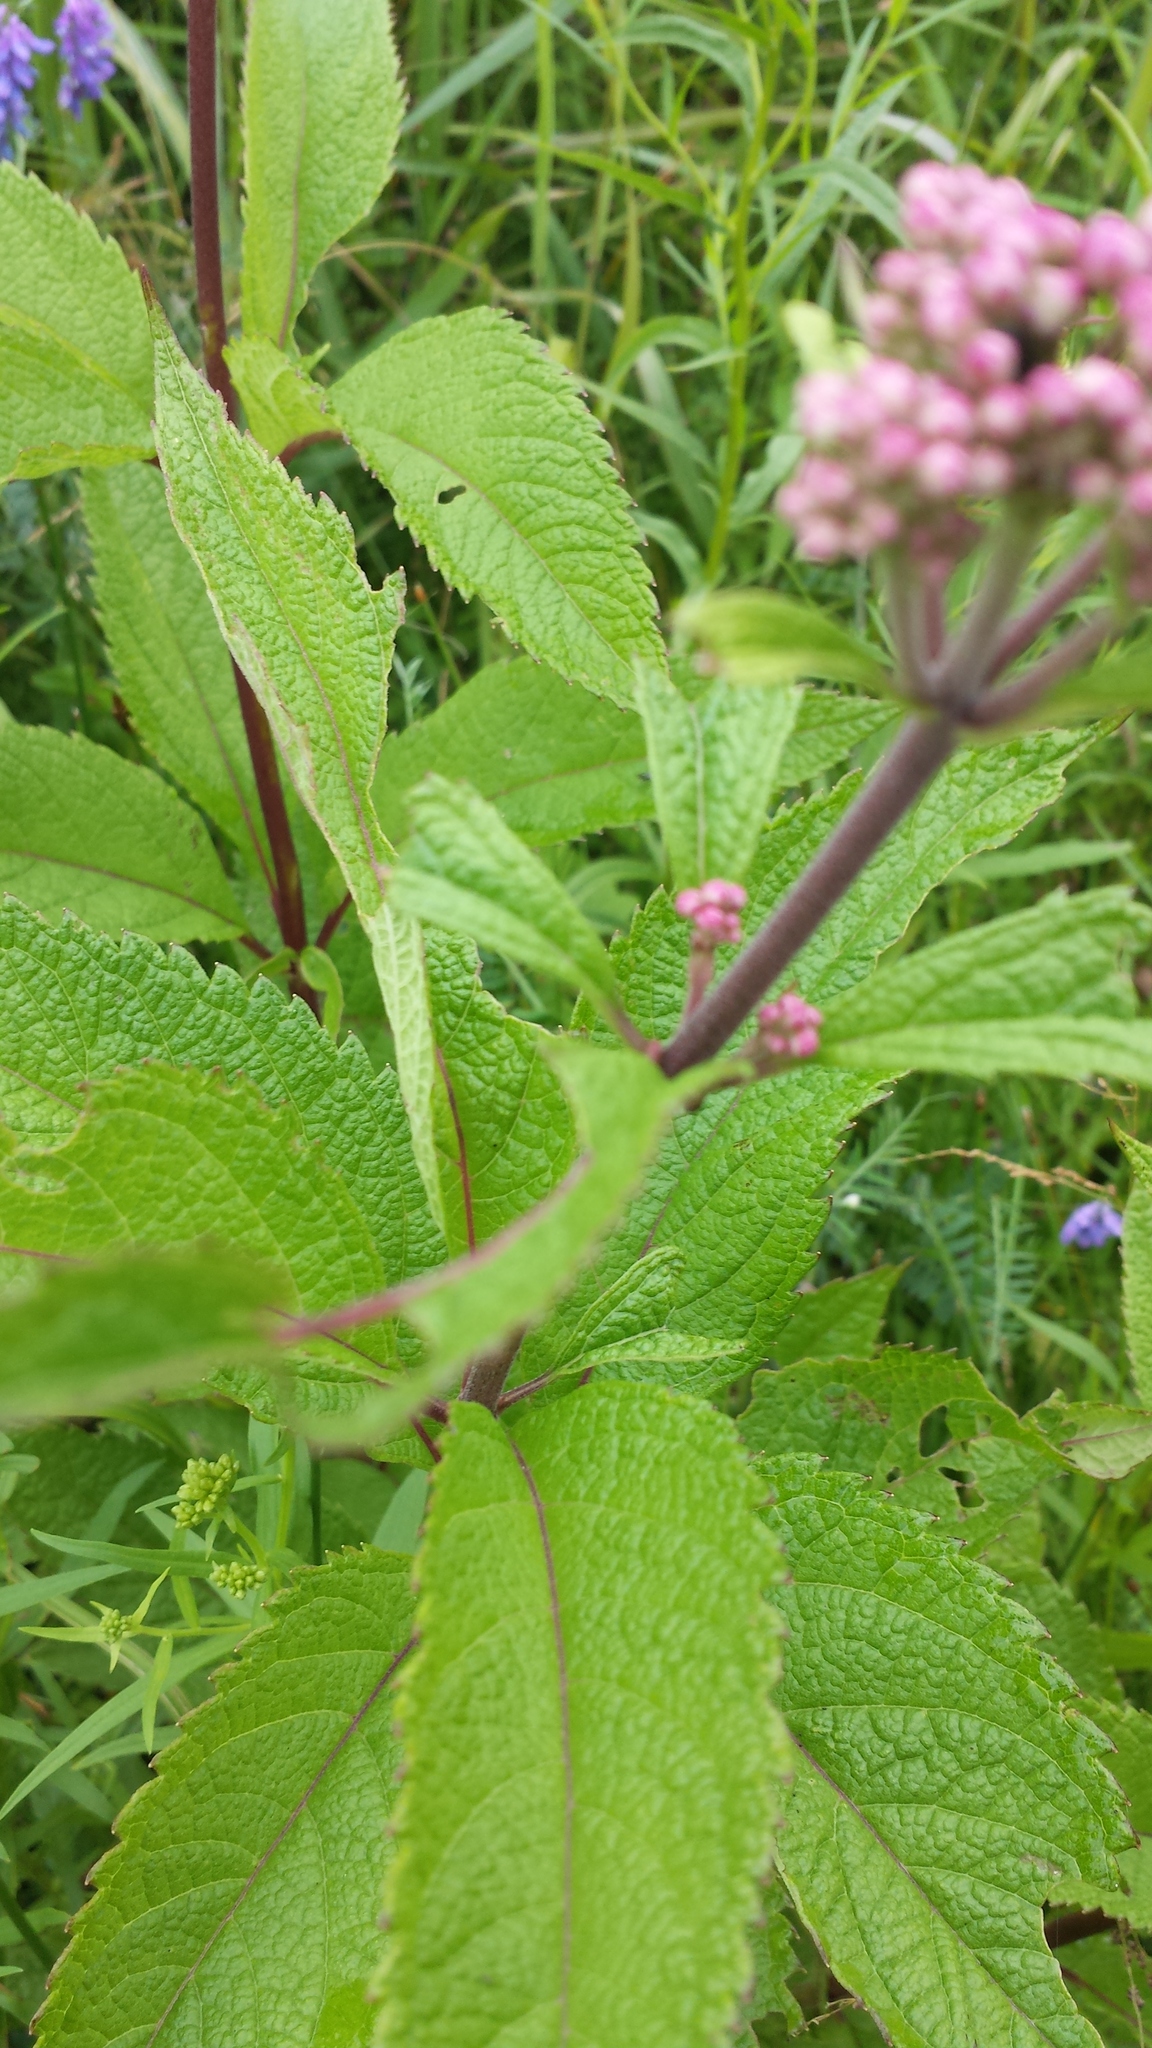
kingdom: Plantae
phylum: Tracheophyta
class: Magnoliopsida
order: Asterales
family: Asteraceae
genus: Eutrochium
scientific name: Eutrochium maculatum
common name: Spotted joe pye weed
